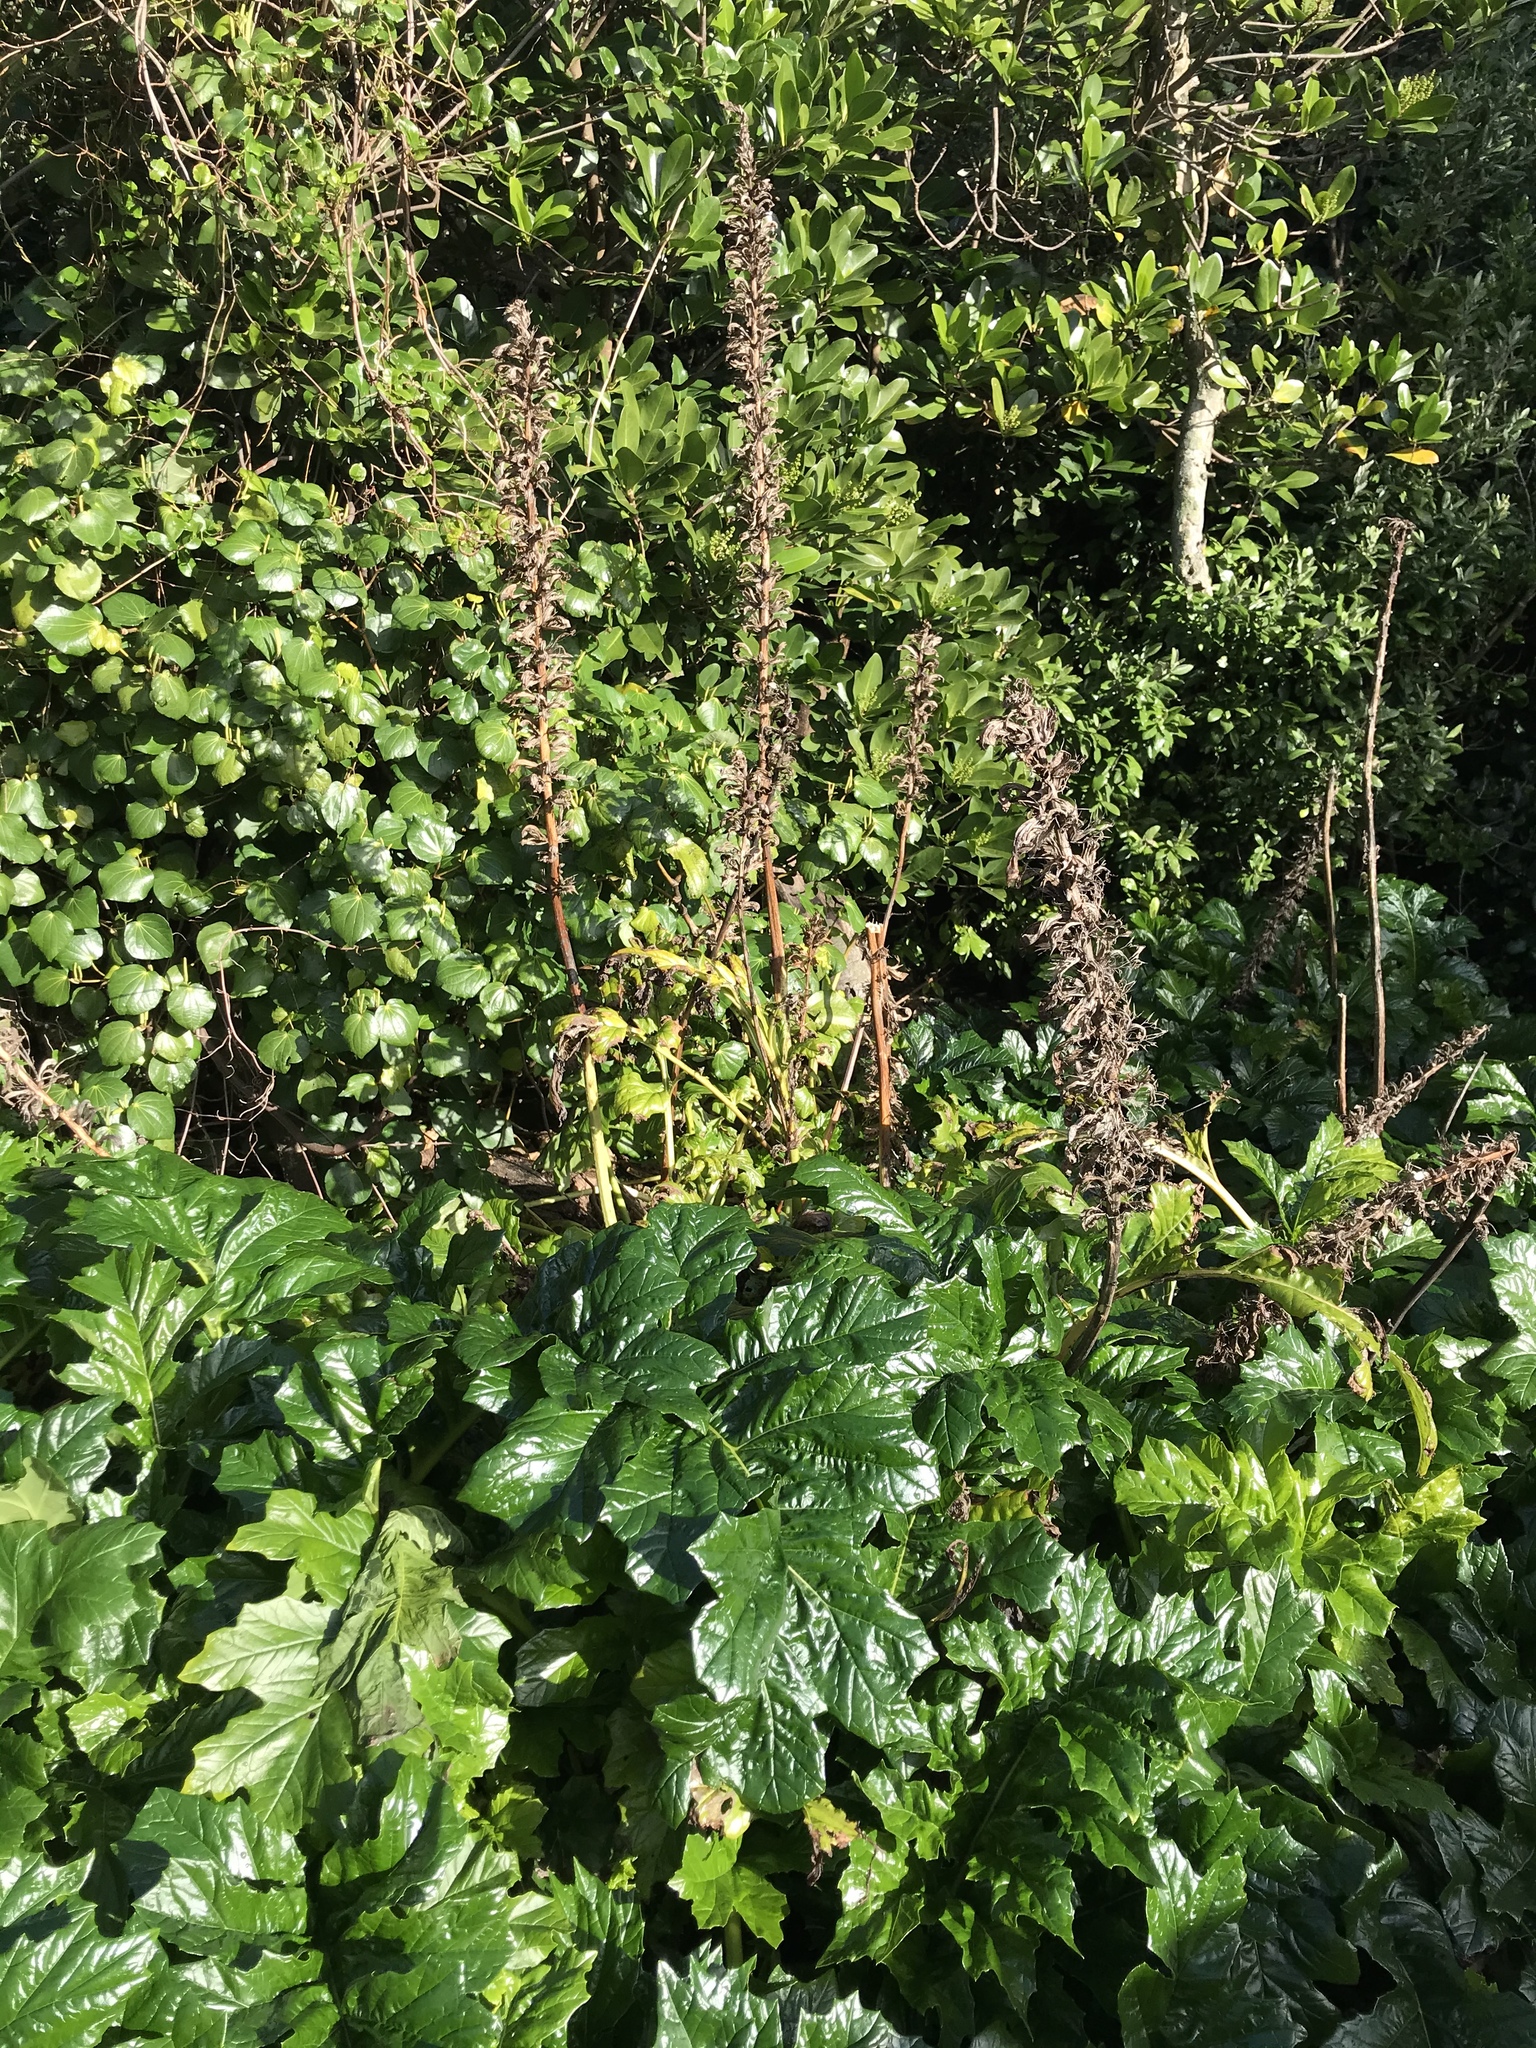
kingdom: Plantae
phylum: Tracheophyta
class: Magnoliopsida
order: Lamiales
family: Acanthaceae
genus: Acanthus
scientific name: Acanthus mollis
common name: Bear's-breech
